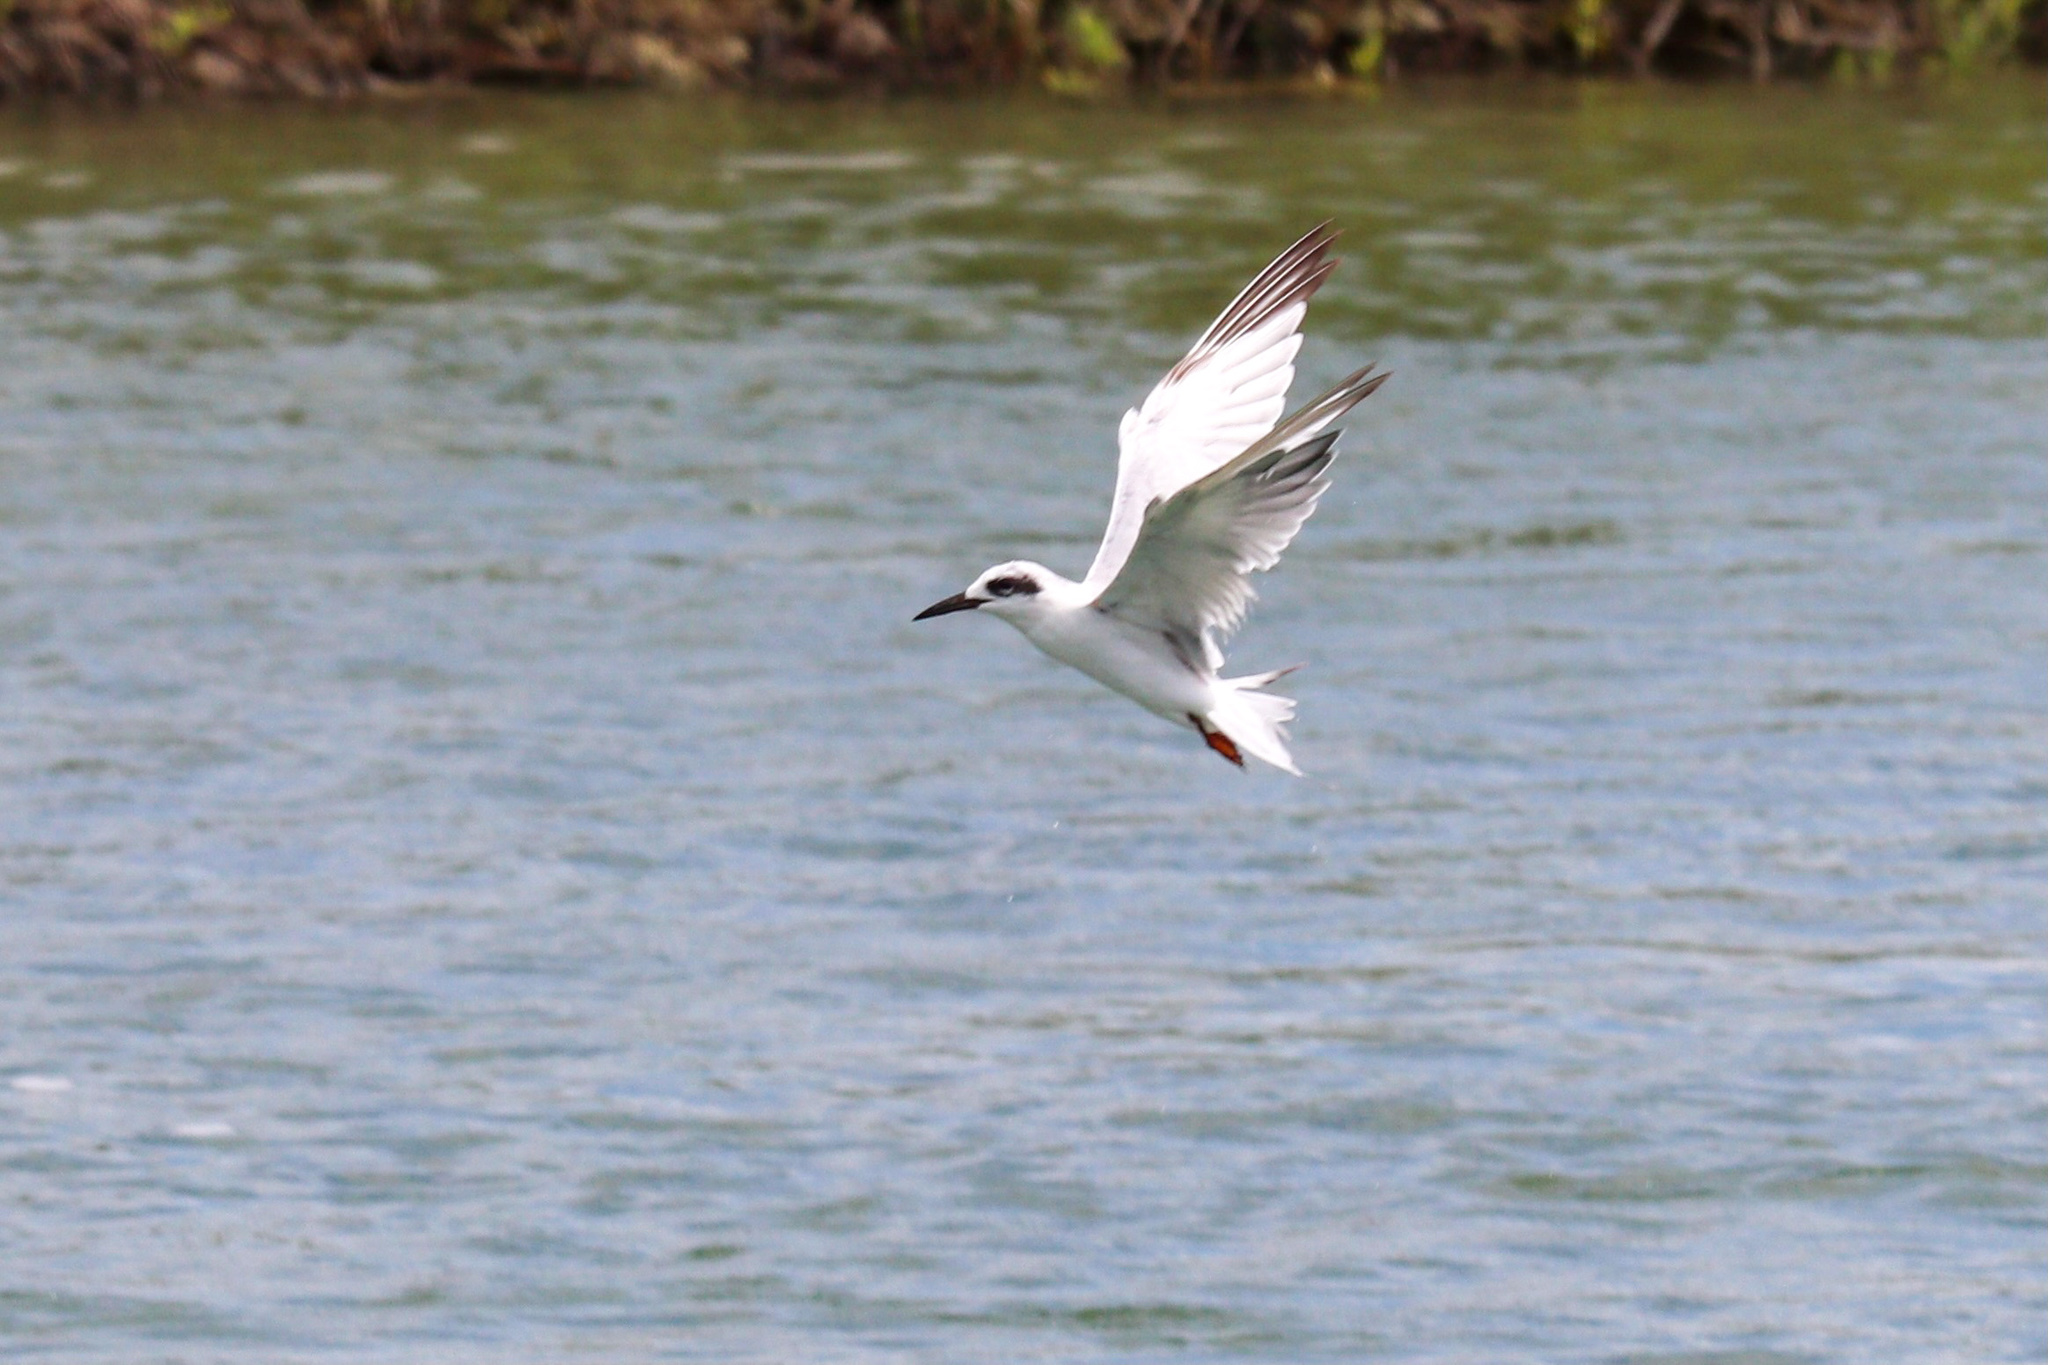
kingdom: Animalia
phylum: Chordata
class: Aves
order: Charadriiformes
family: Laridae
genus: Sterna
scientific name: Sterna forsteri
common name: Forster's tern
